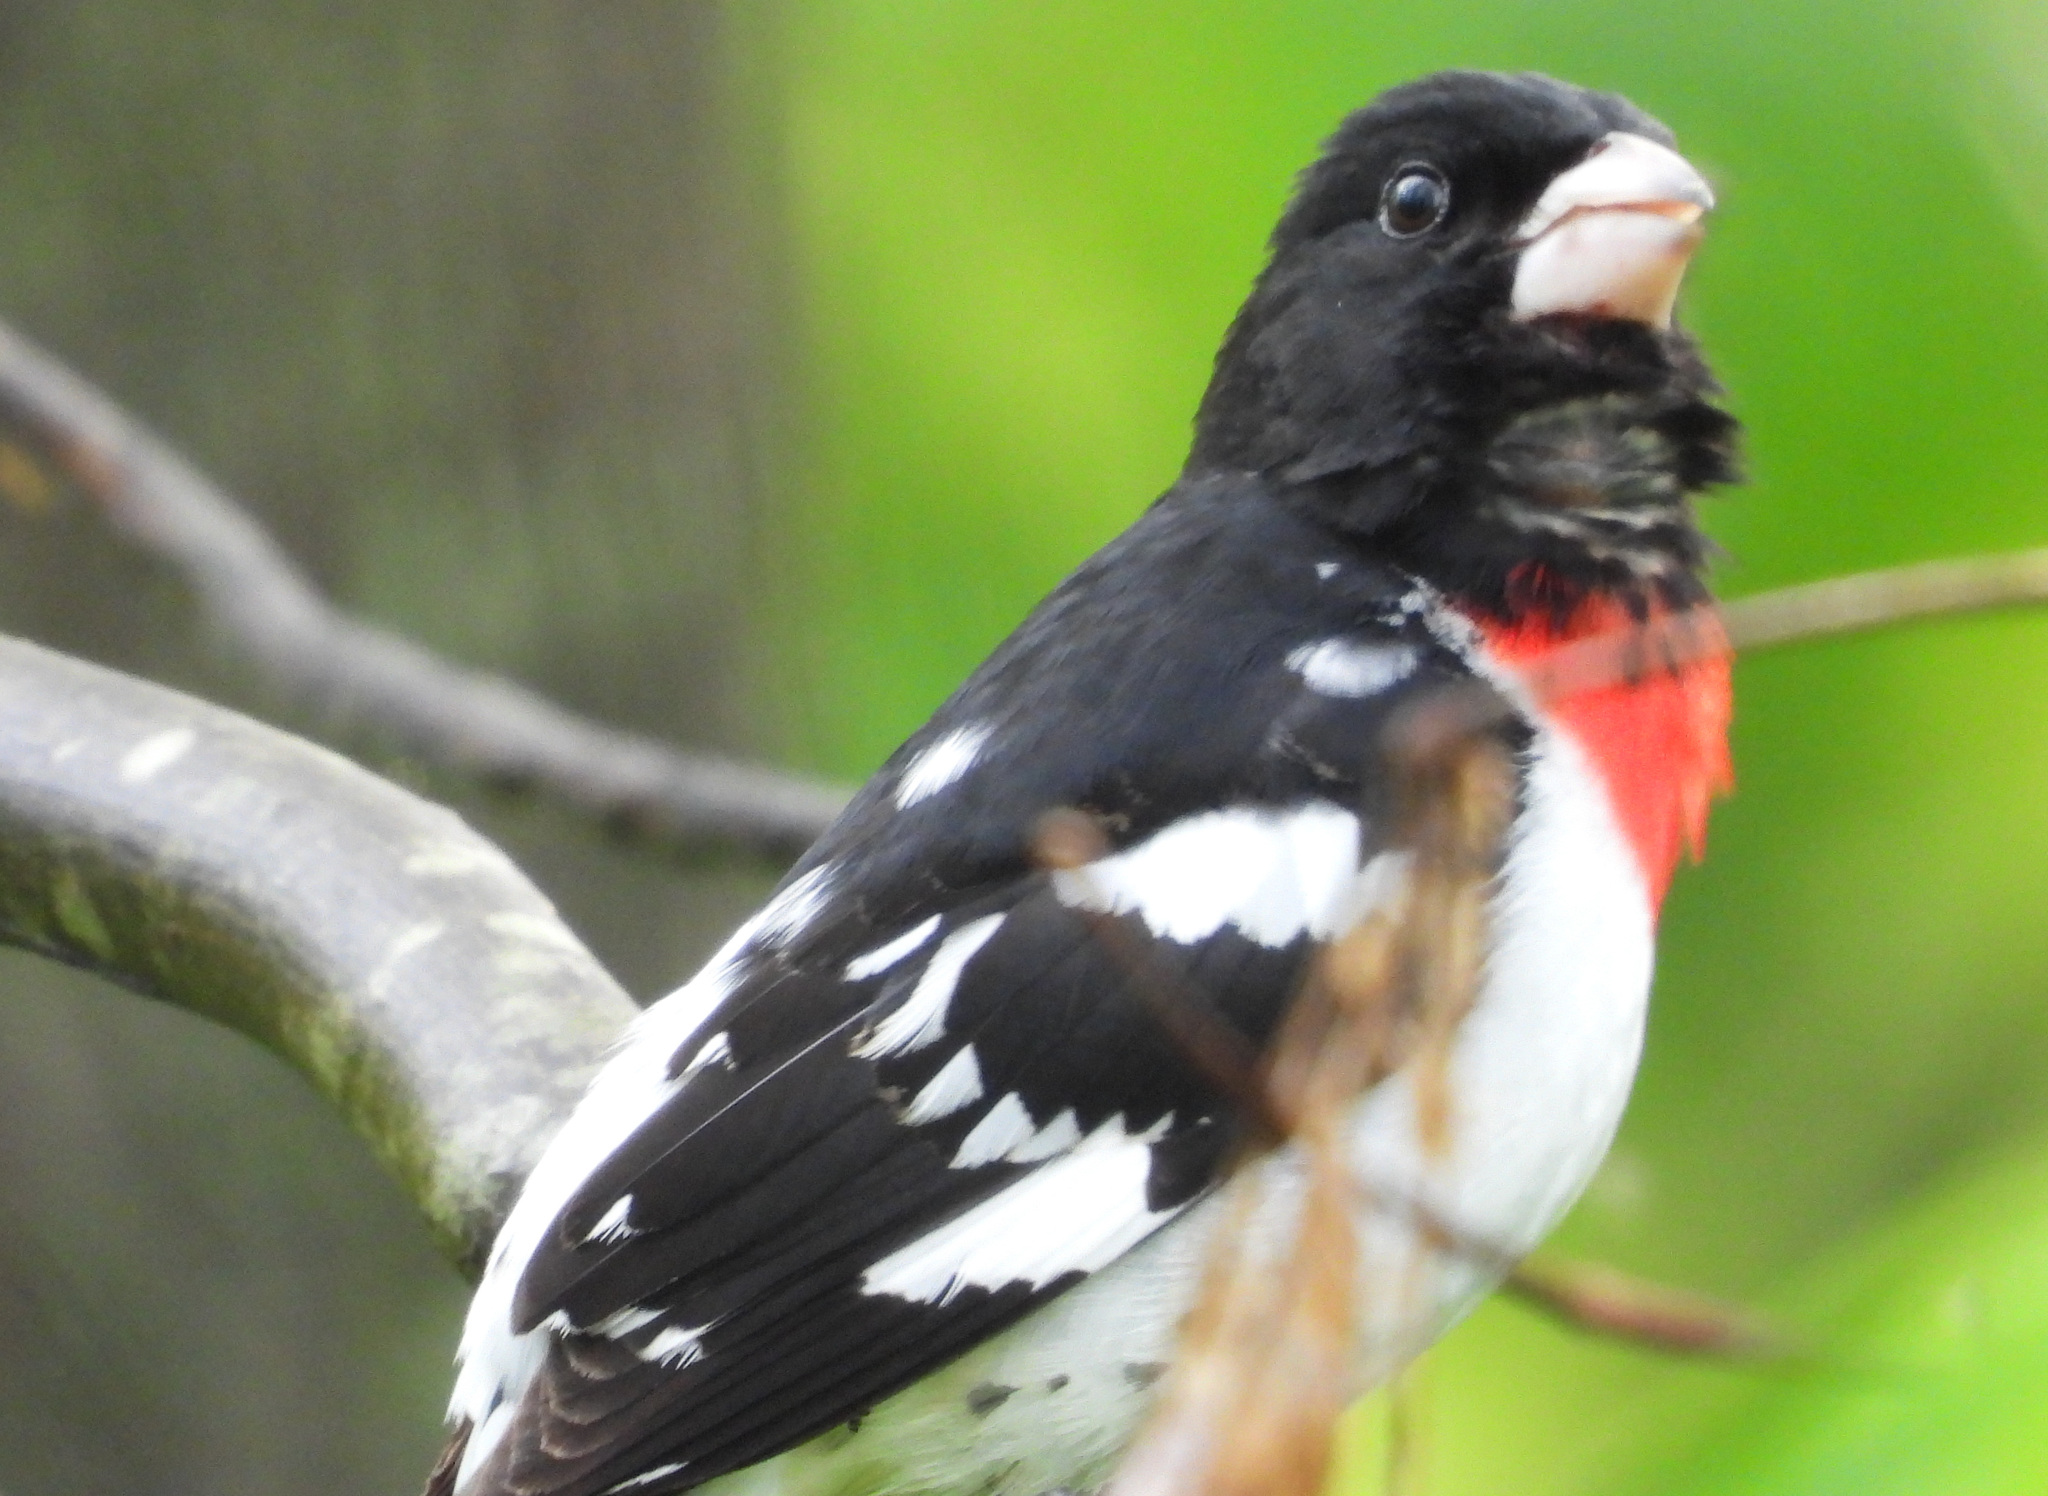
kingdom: Animalia
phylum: Chordata
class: Aves
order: Passeriformes
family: Cardinalidae
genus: Pheucticus
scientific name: Pheucticus ludovicianus
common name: Rose-breasted grosbeak
